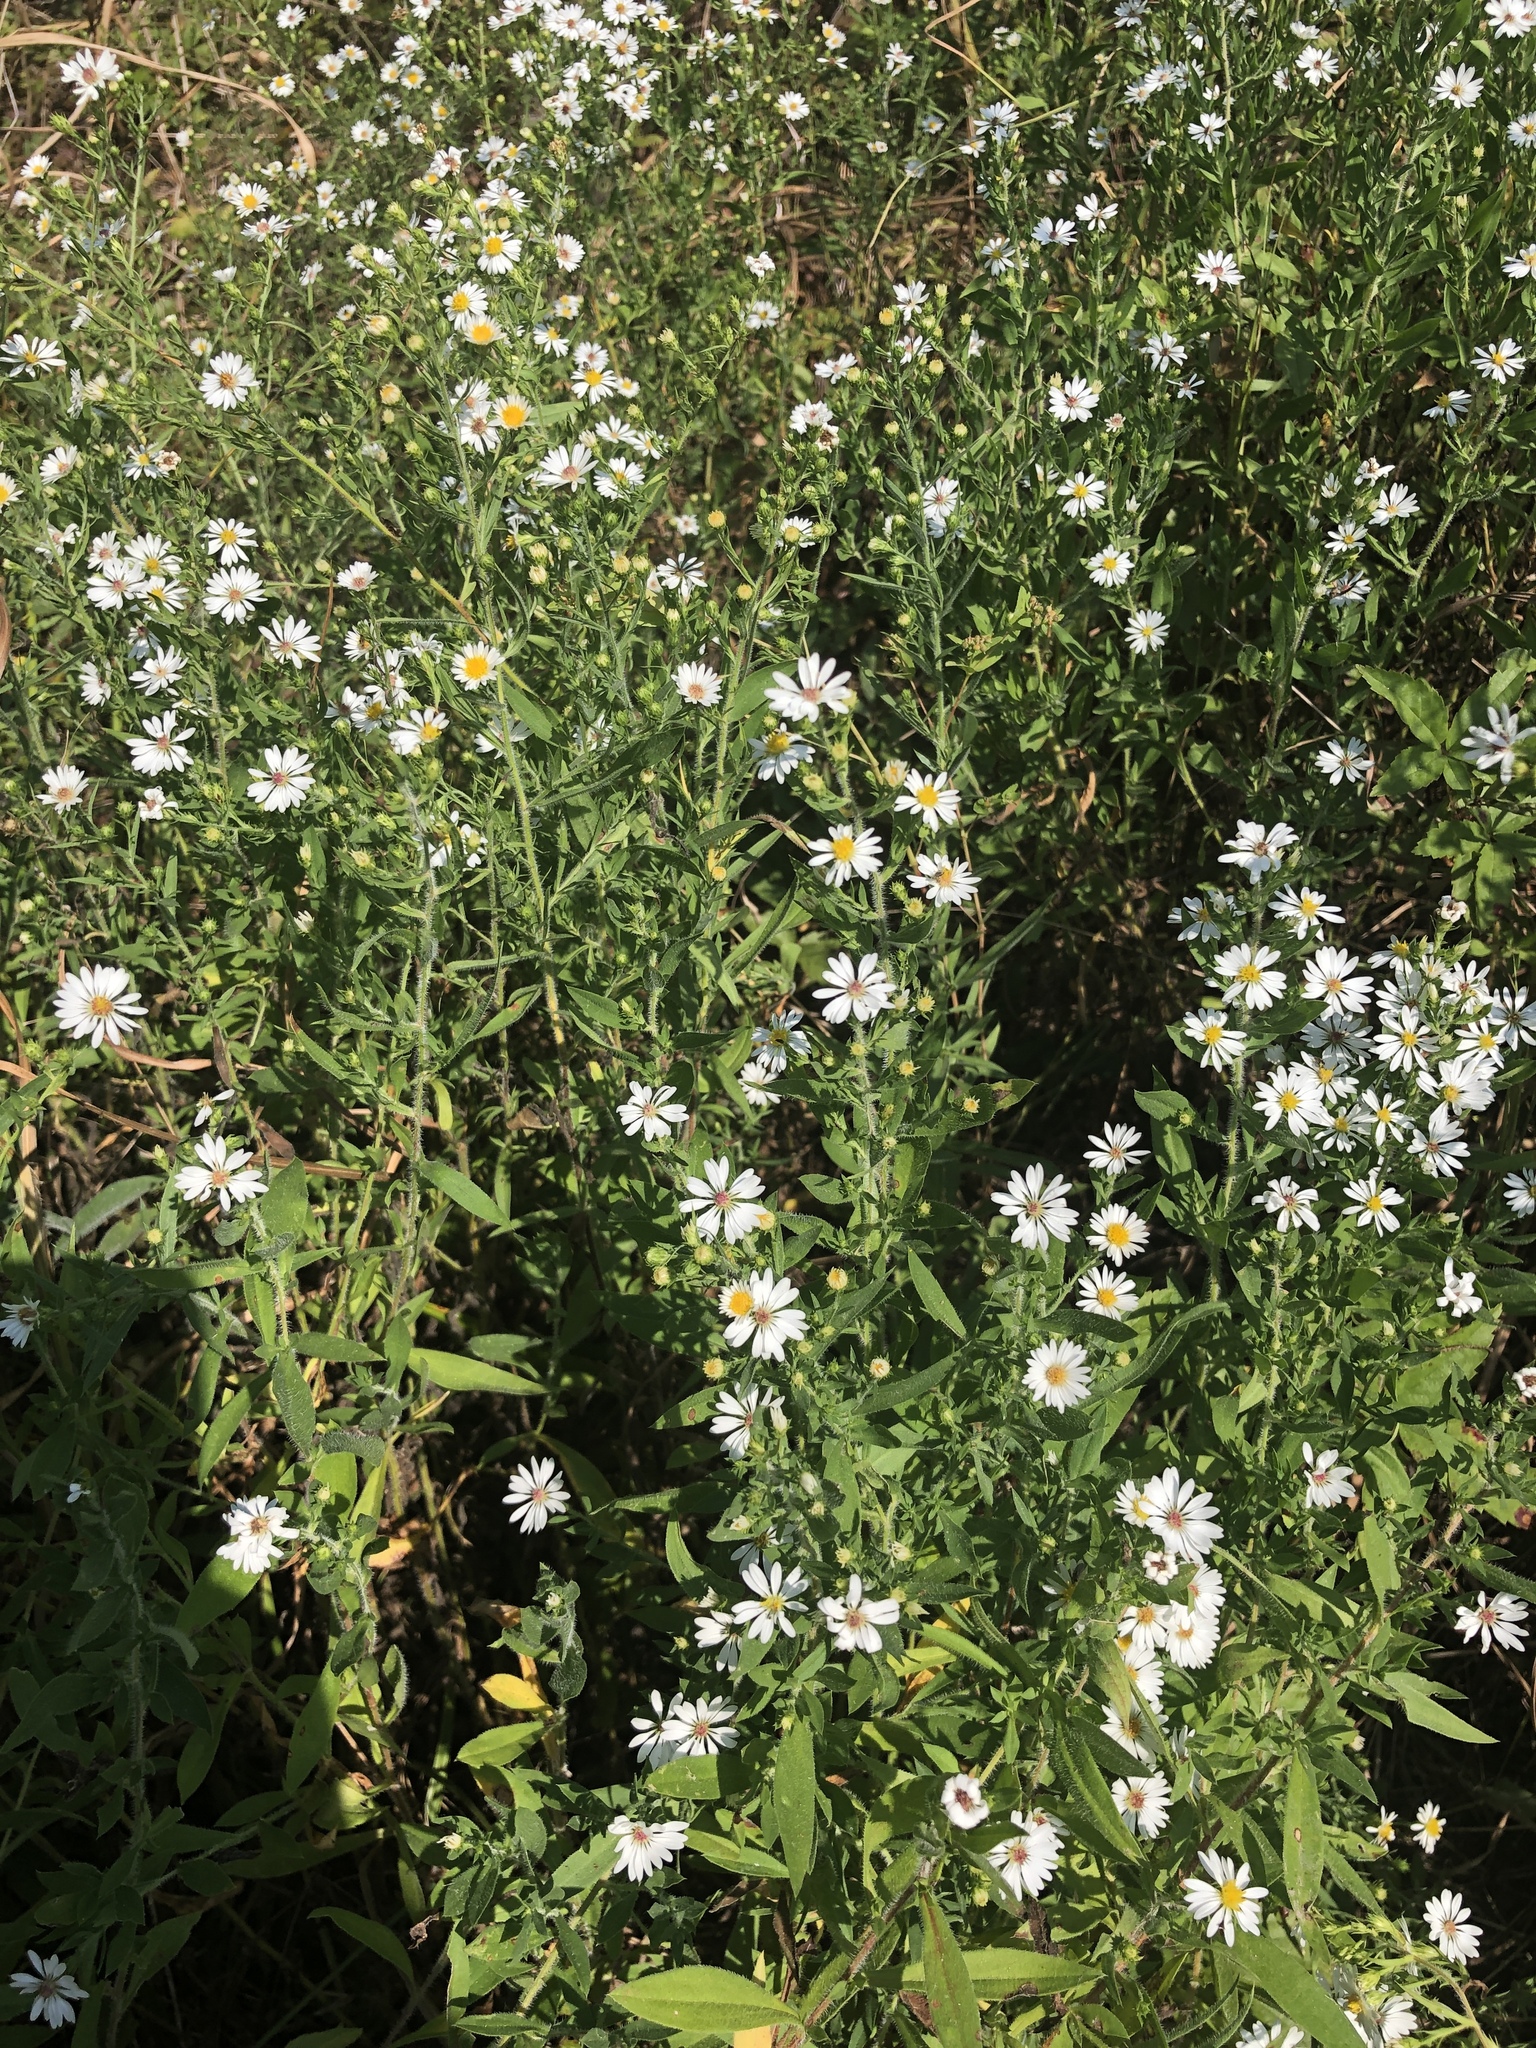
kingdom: Plantae
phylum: Tracheophyta
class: Magnoliopsida
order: Asterales
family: Asteraceae
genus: Symphyotrichum
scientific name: Symphyotrichum pilosum
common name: Awl aster
